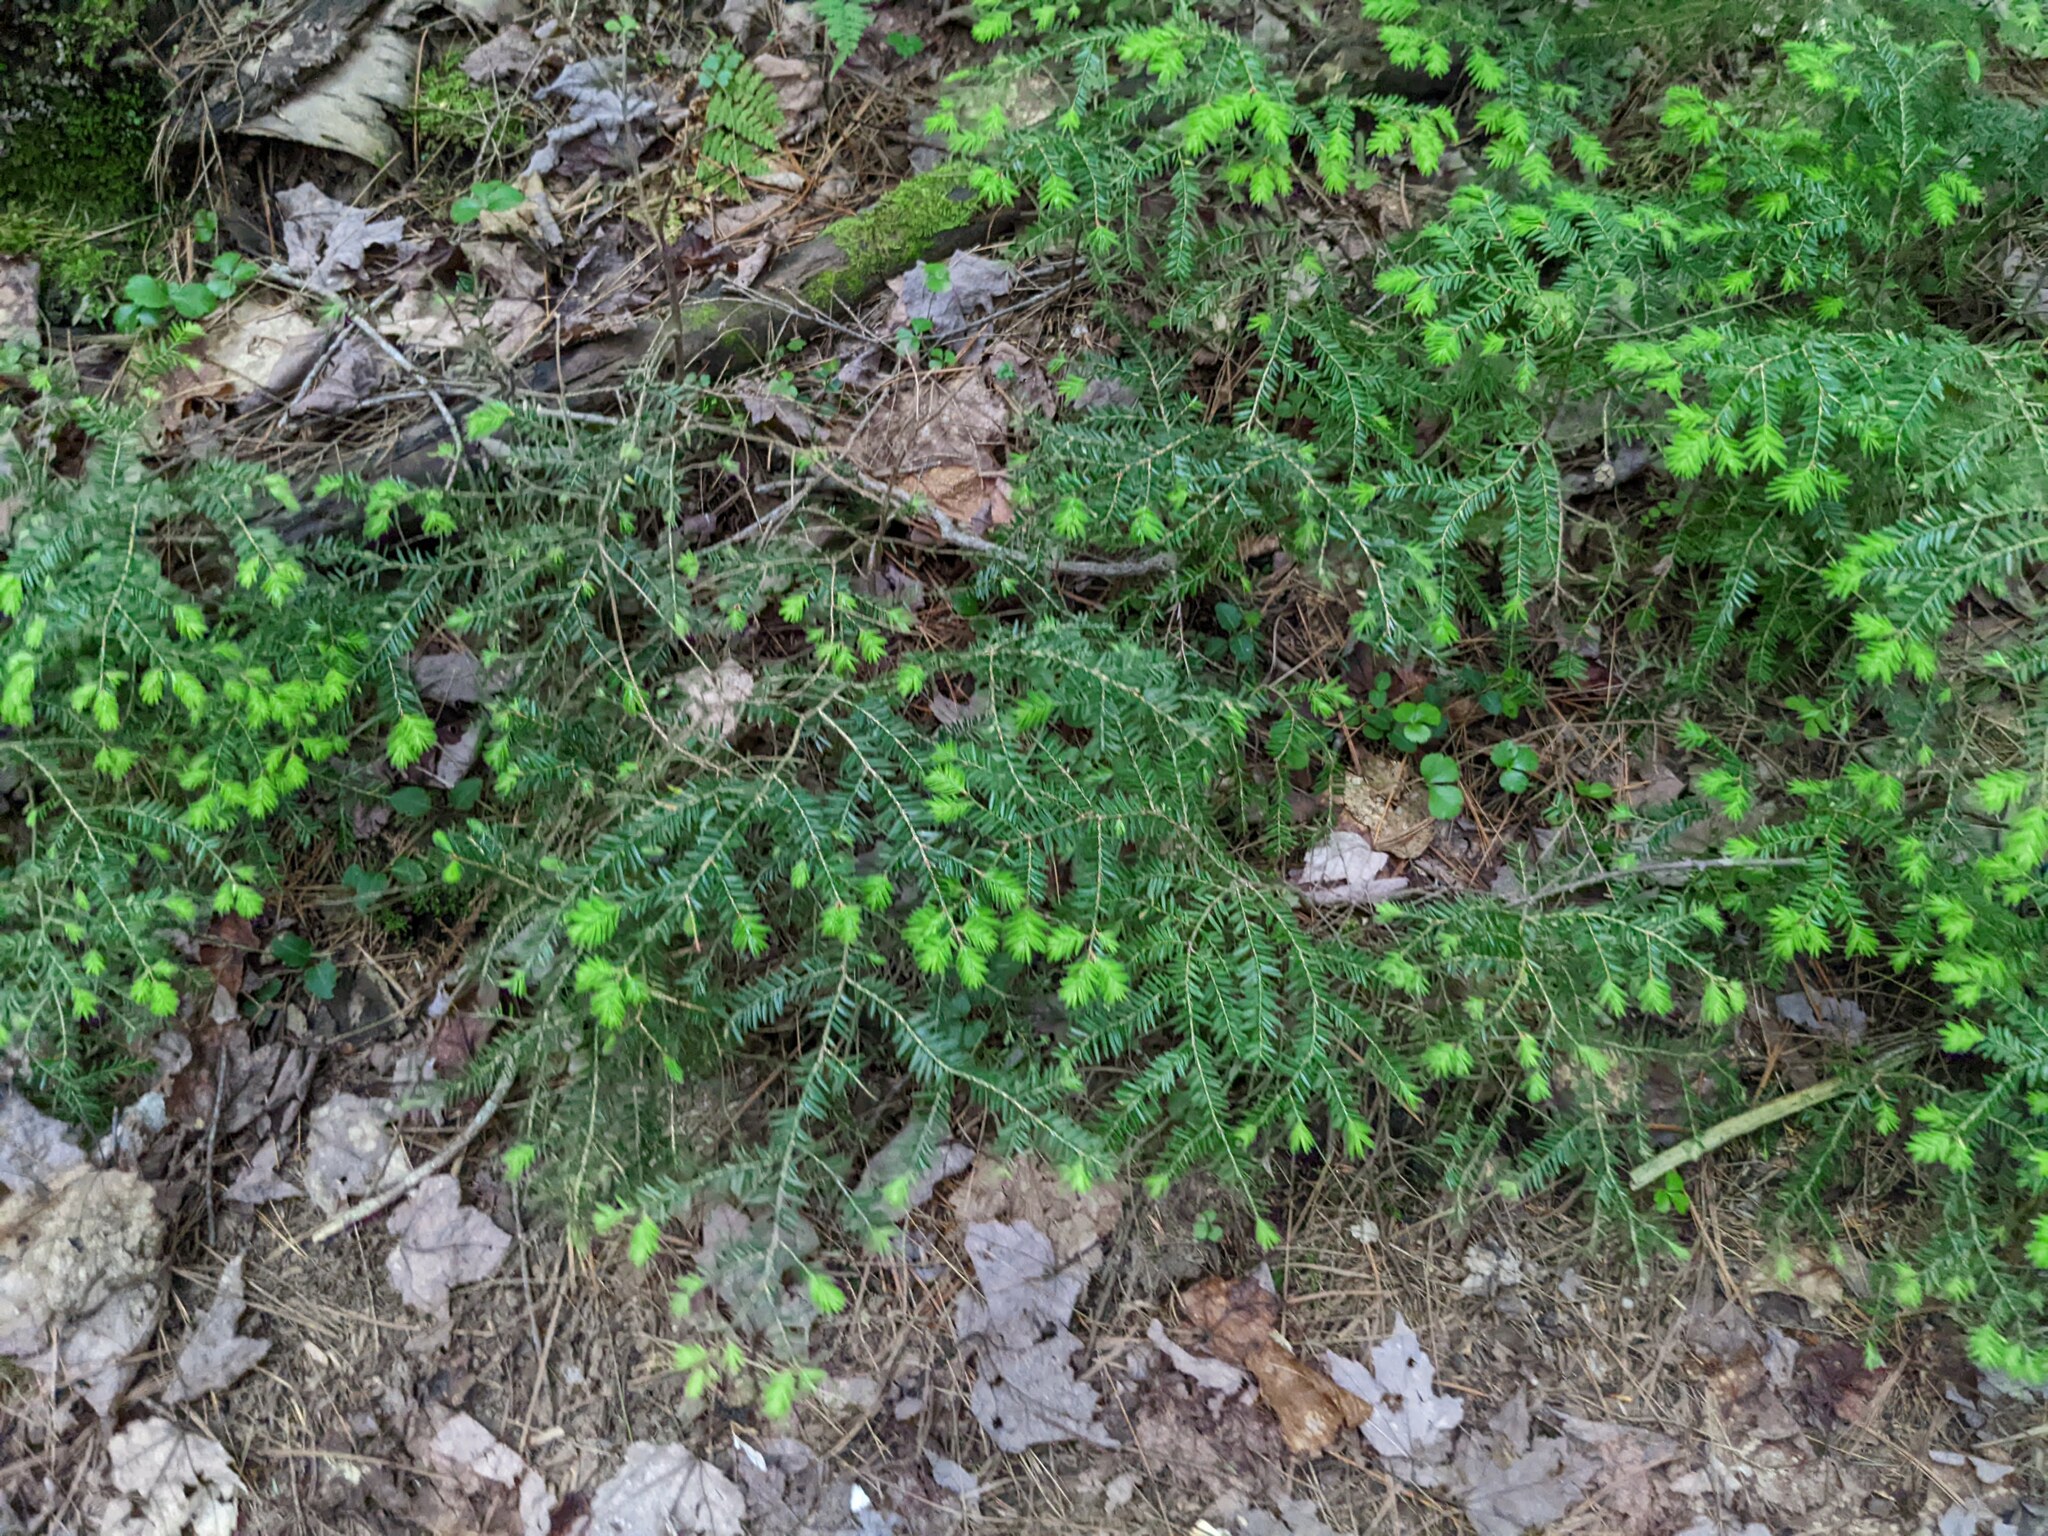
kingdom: Plantae
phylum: Tracheophyta
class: Pinopsida
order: Pinales
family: Pinaceae
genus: Tsuga
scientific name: Tsuga canadensis
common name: Eastern hemlock
